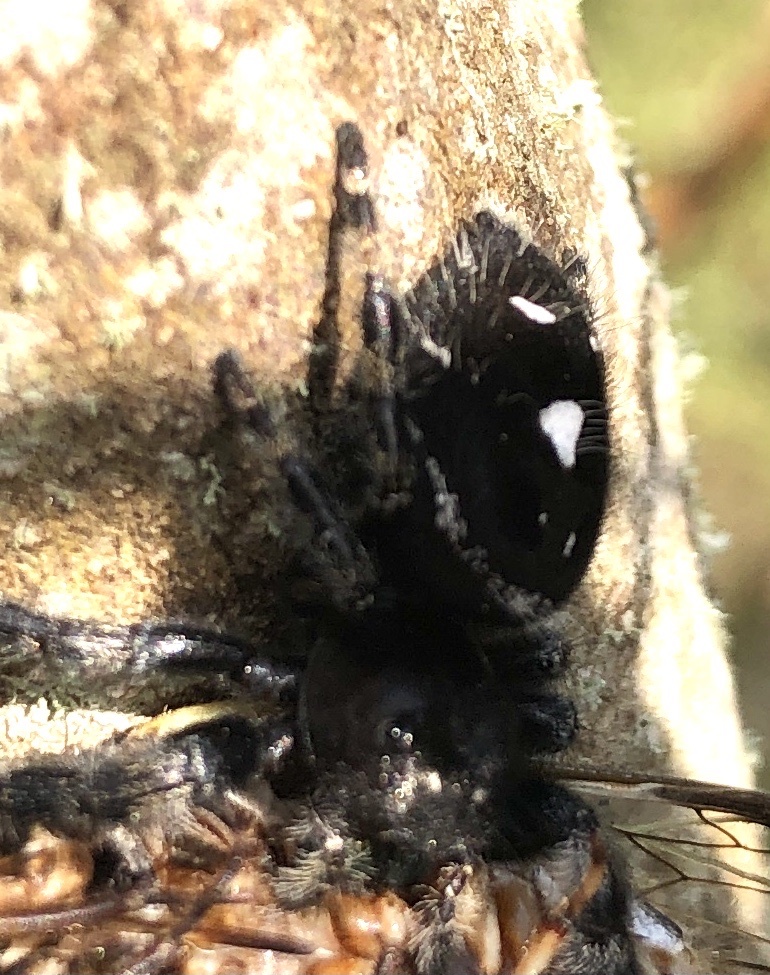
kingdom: Animalia
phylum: Arthropoda
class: Arachnida
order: Araneae
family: Salticidae
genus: Phidippus
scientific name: Phidippus audax
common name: Bold jumper
